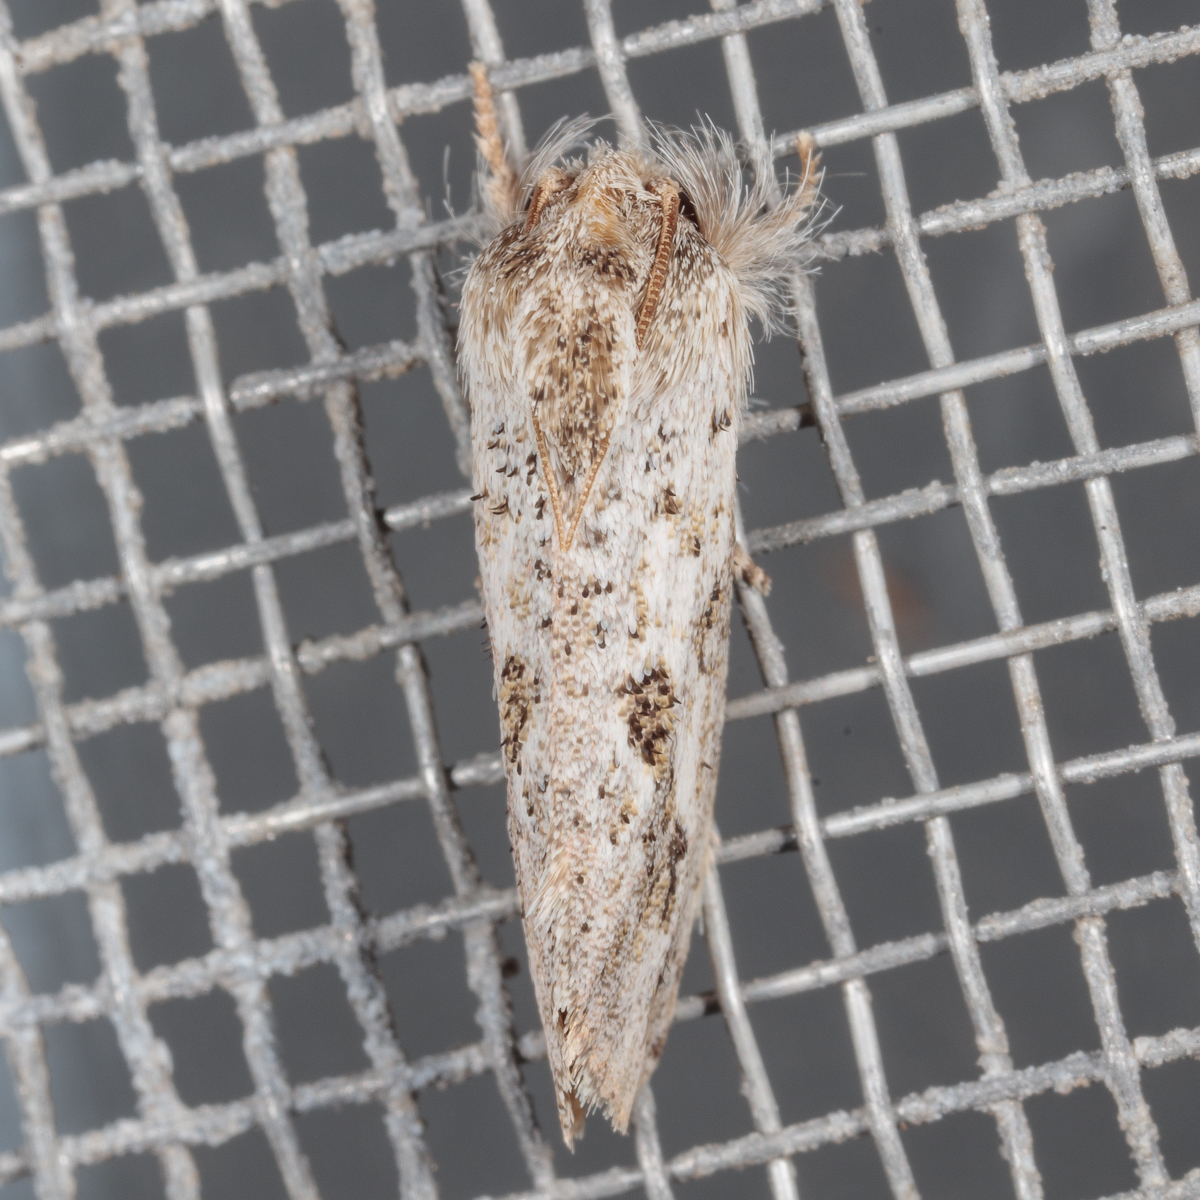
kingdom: Animalia
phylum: Arthropoda
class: Insecta
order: Lepidoptera
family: Tineidae
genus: Acrolophus
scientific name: Acrolophus griseus
